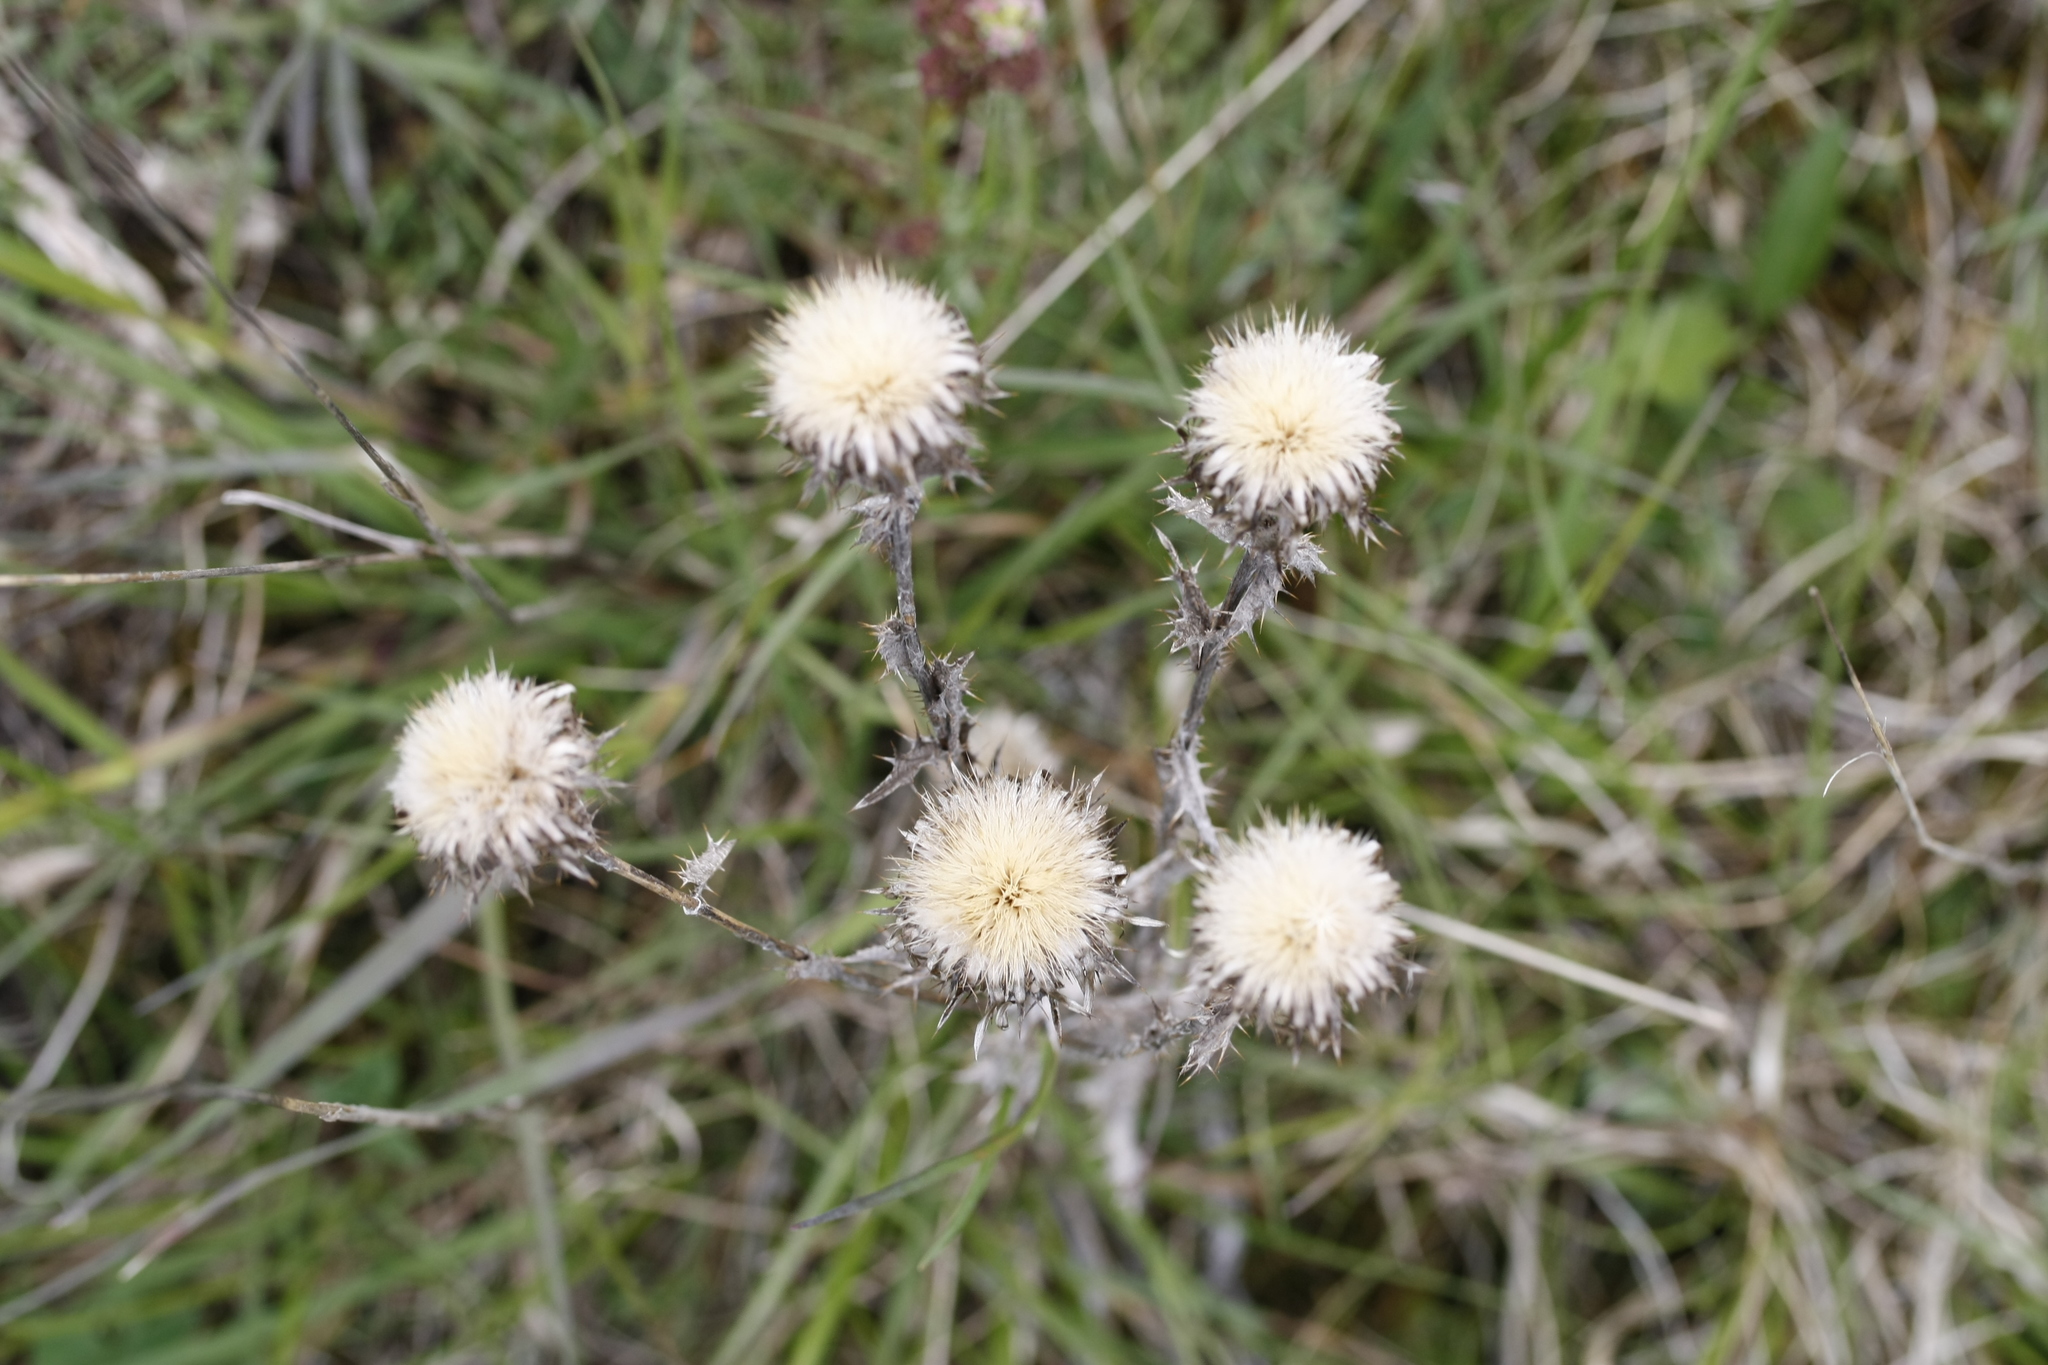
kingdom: Plantae
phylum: Tracheophyta
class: Magnoliopsida
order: Asterales
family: Asteraceae
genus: Carlina
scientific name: Carlina vulgaris
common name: Carline thistle
